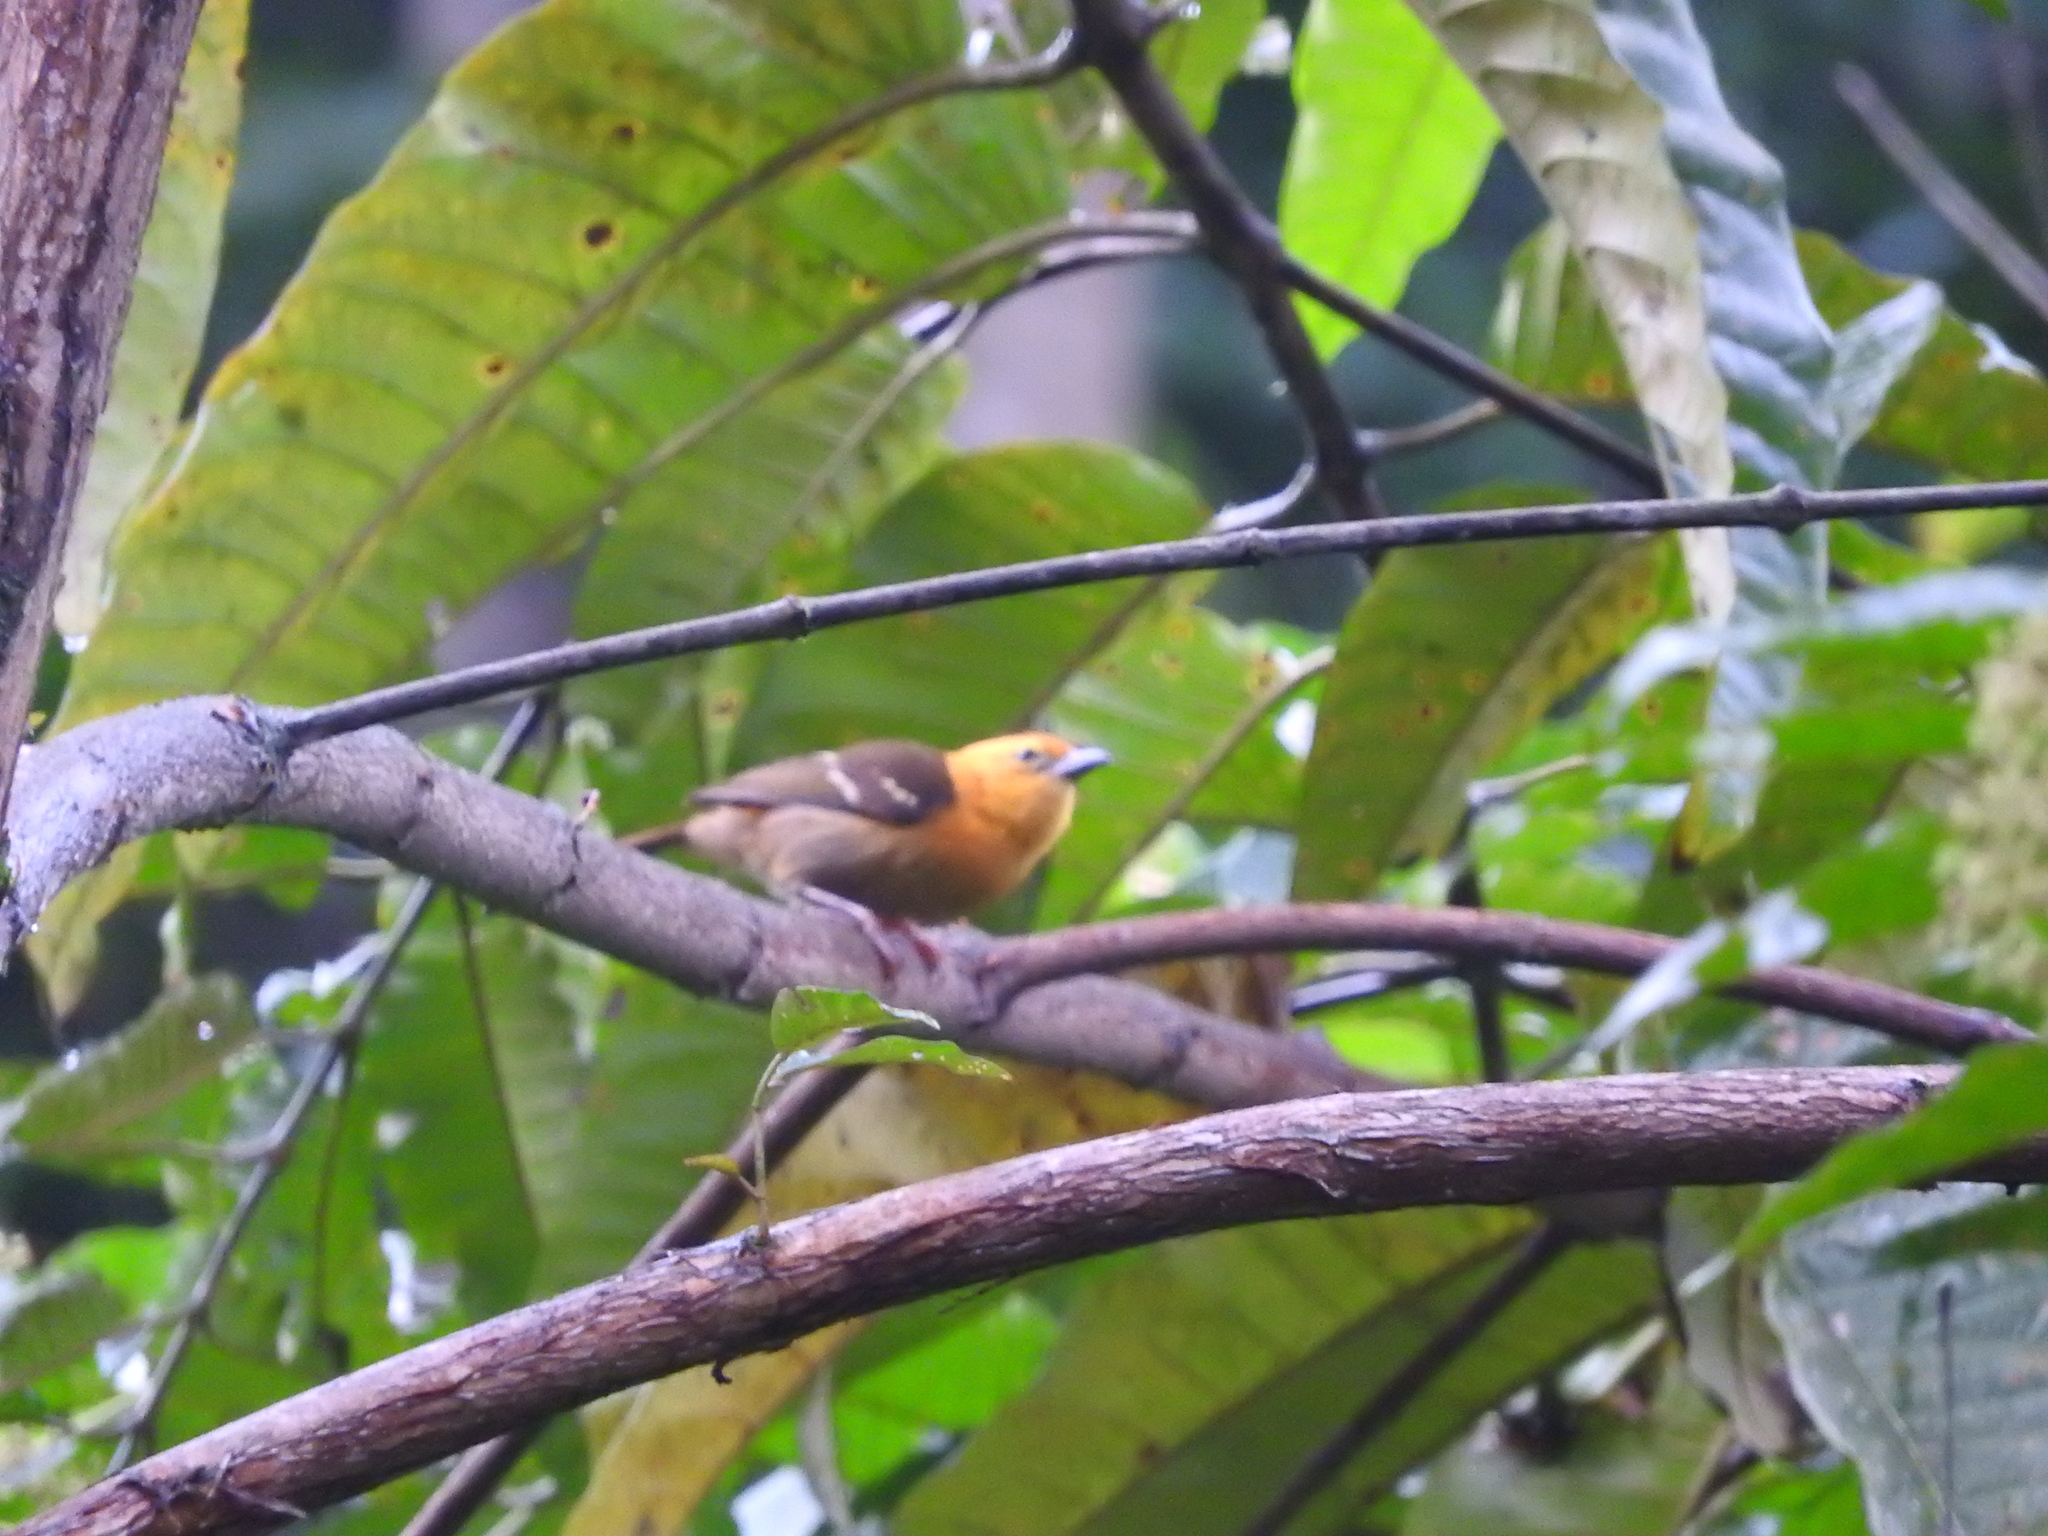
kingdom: Animalia
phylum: Chordata
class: Aves
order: Passeriformes
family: Ploceidae
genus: Ploceus
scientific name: Ploceus sanctithomae
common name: Sao tome weaver
